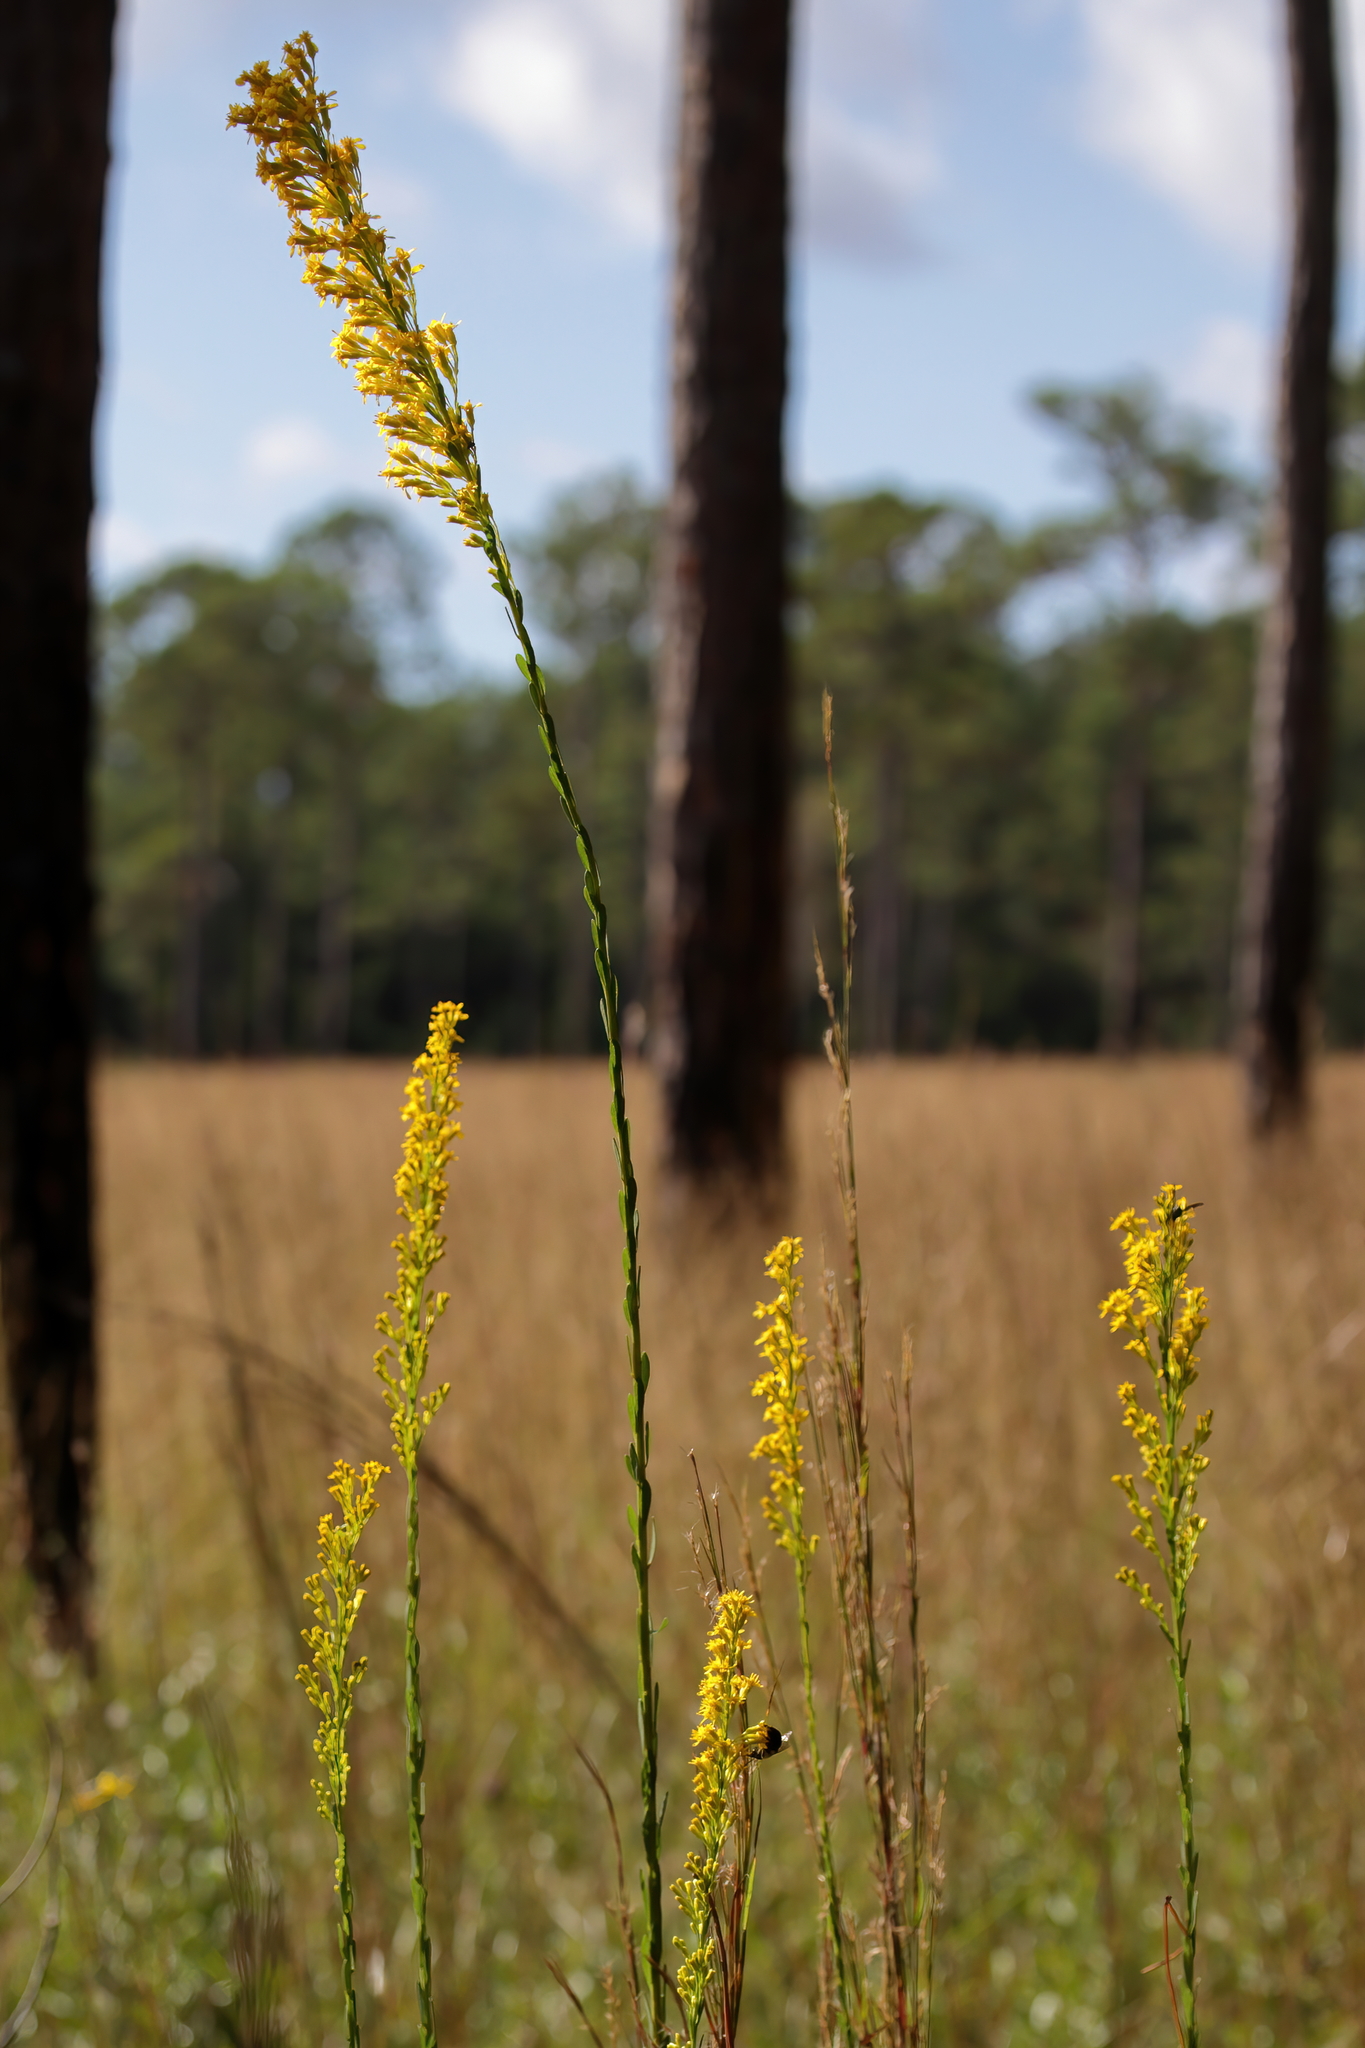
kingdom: Plantae
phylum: Tracheophyta
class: Magnoliopsida
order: Asterales
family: Asteraceae
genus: Solidago
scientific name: Solidago virgata
